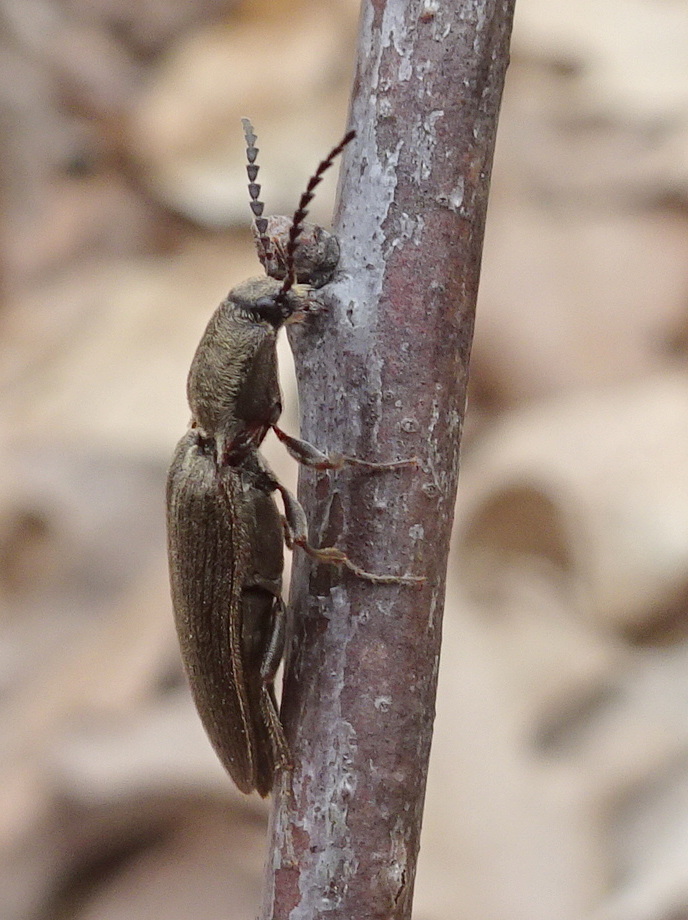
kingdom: Animalia
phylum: Arthropoda
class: Insecta
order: Coleoptera
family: Elateridae
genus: Sylvanelater
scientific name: Sylvanelater cylindriformis
